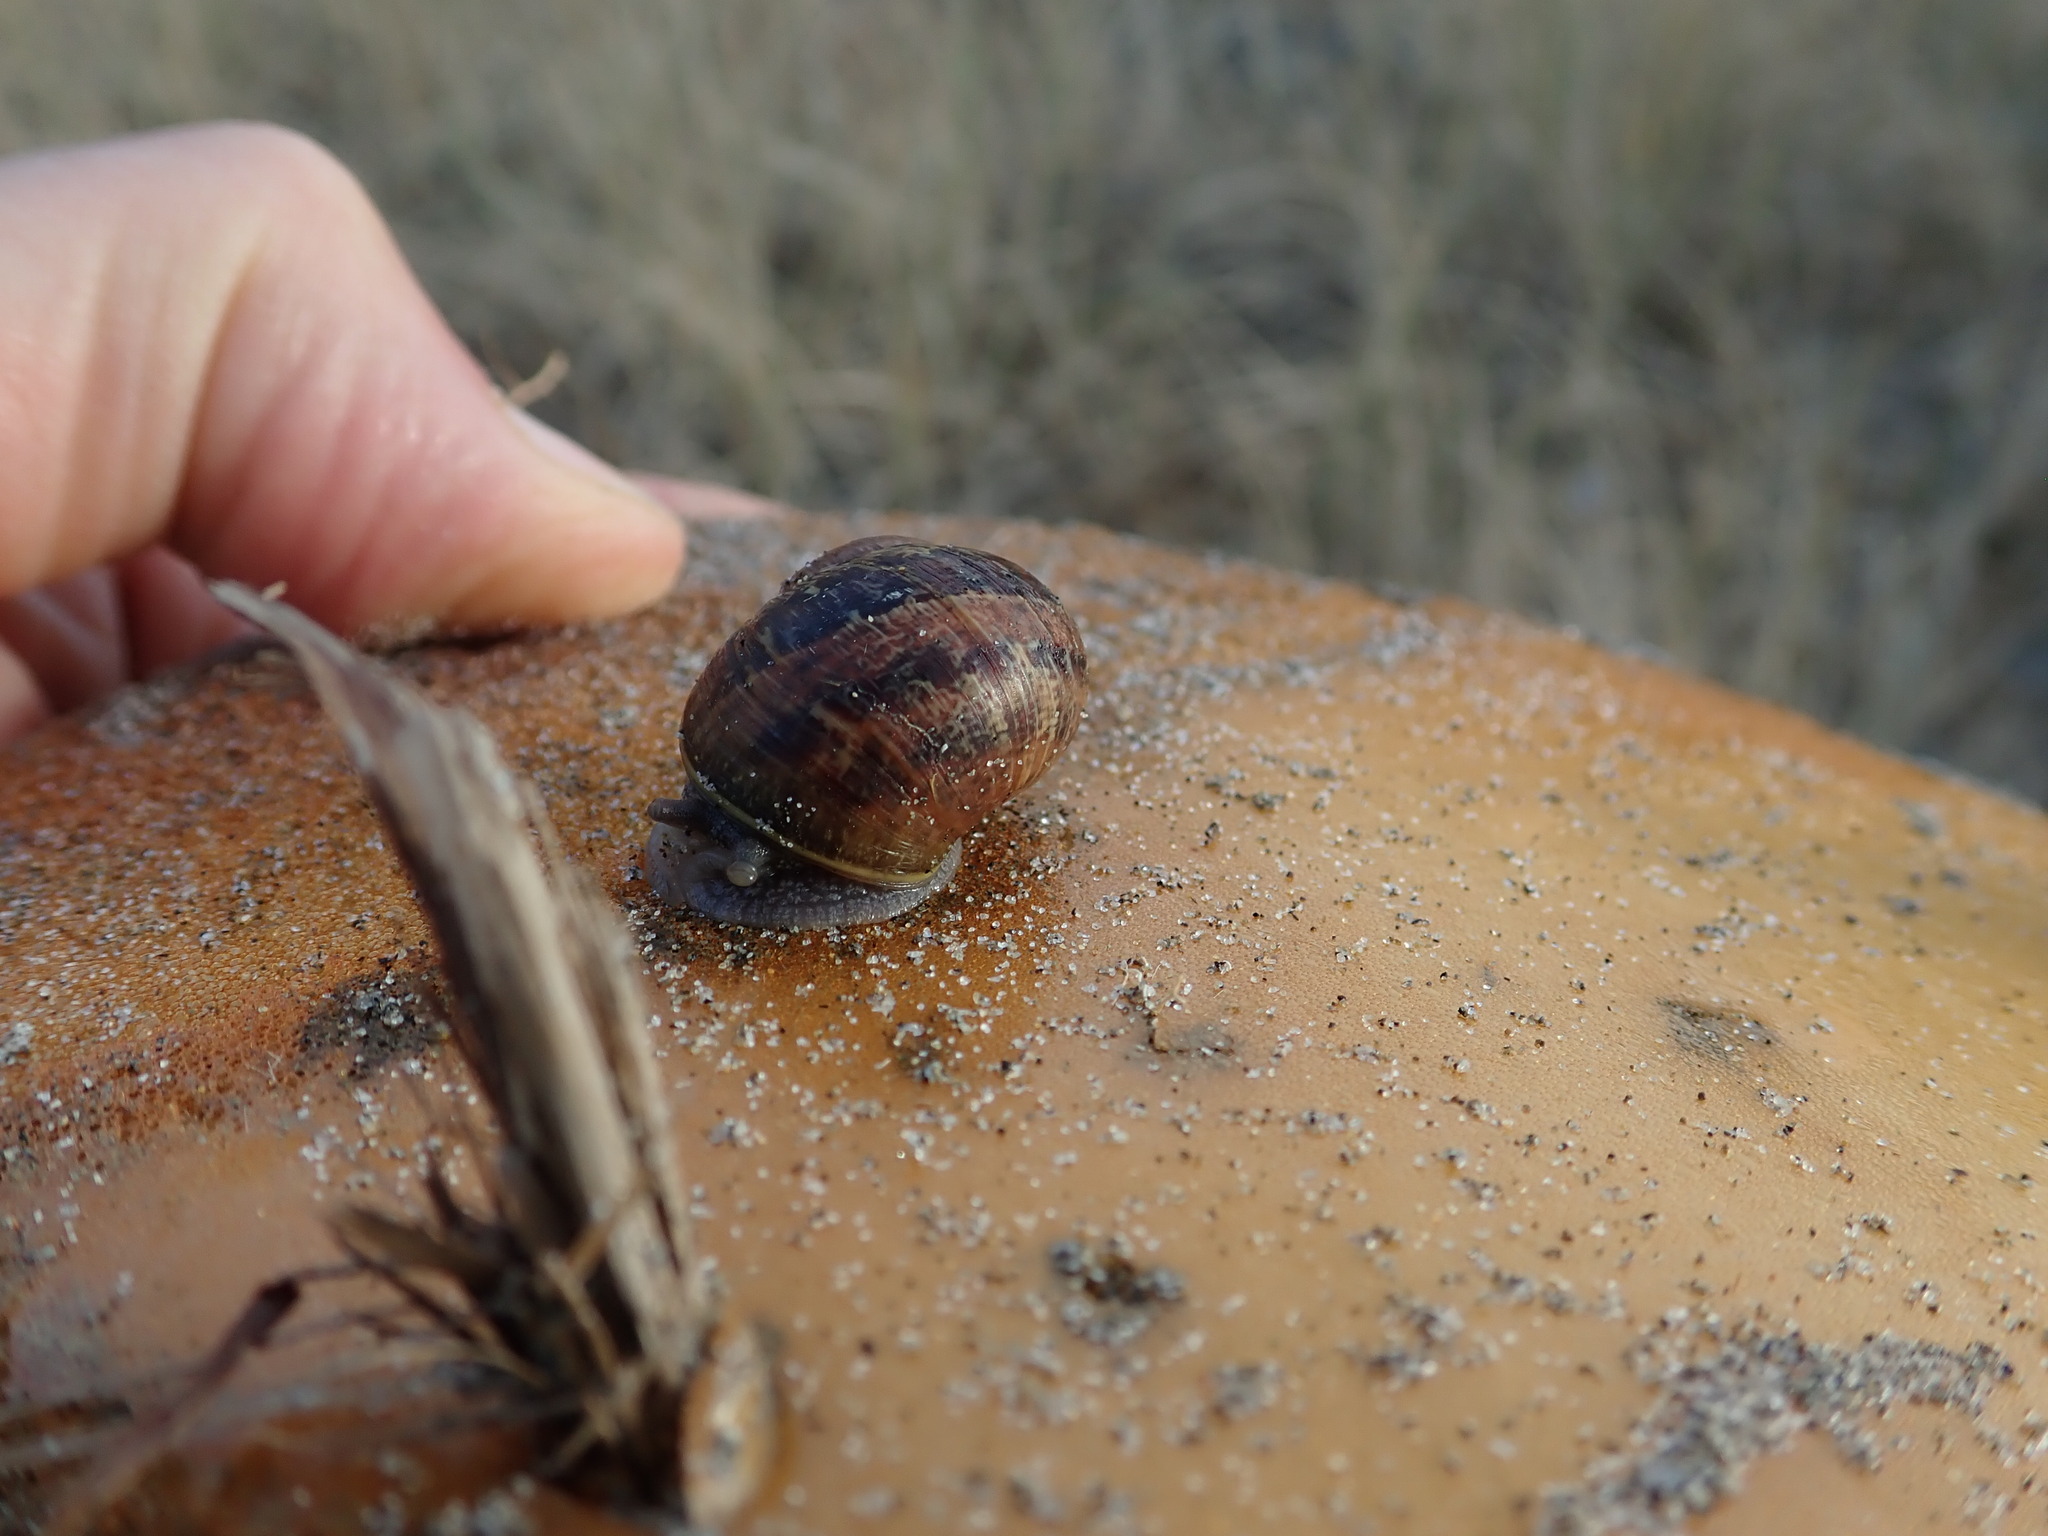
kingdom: Animalia
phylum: Mollusca
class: Gastropoda
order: Stylommatophora
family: Helicidae
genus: Cornu
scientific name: Cornu aspersum
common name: Brown garden snail
